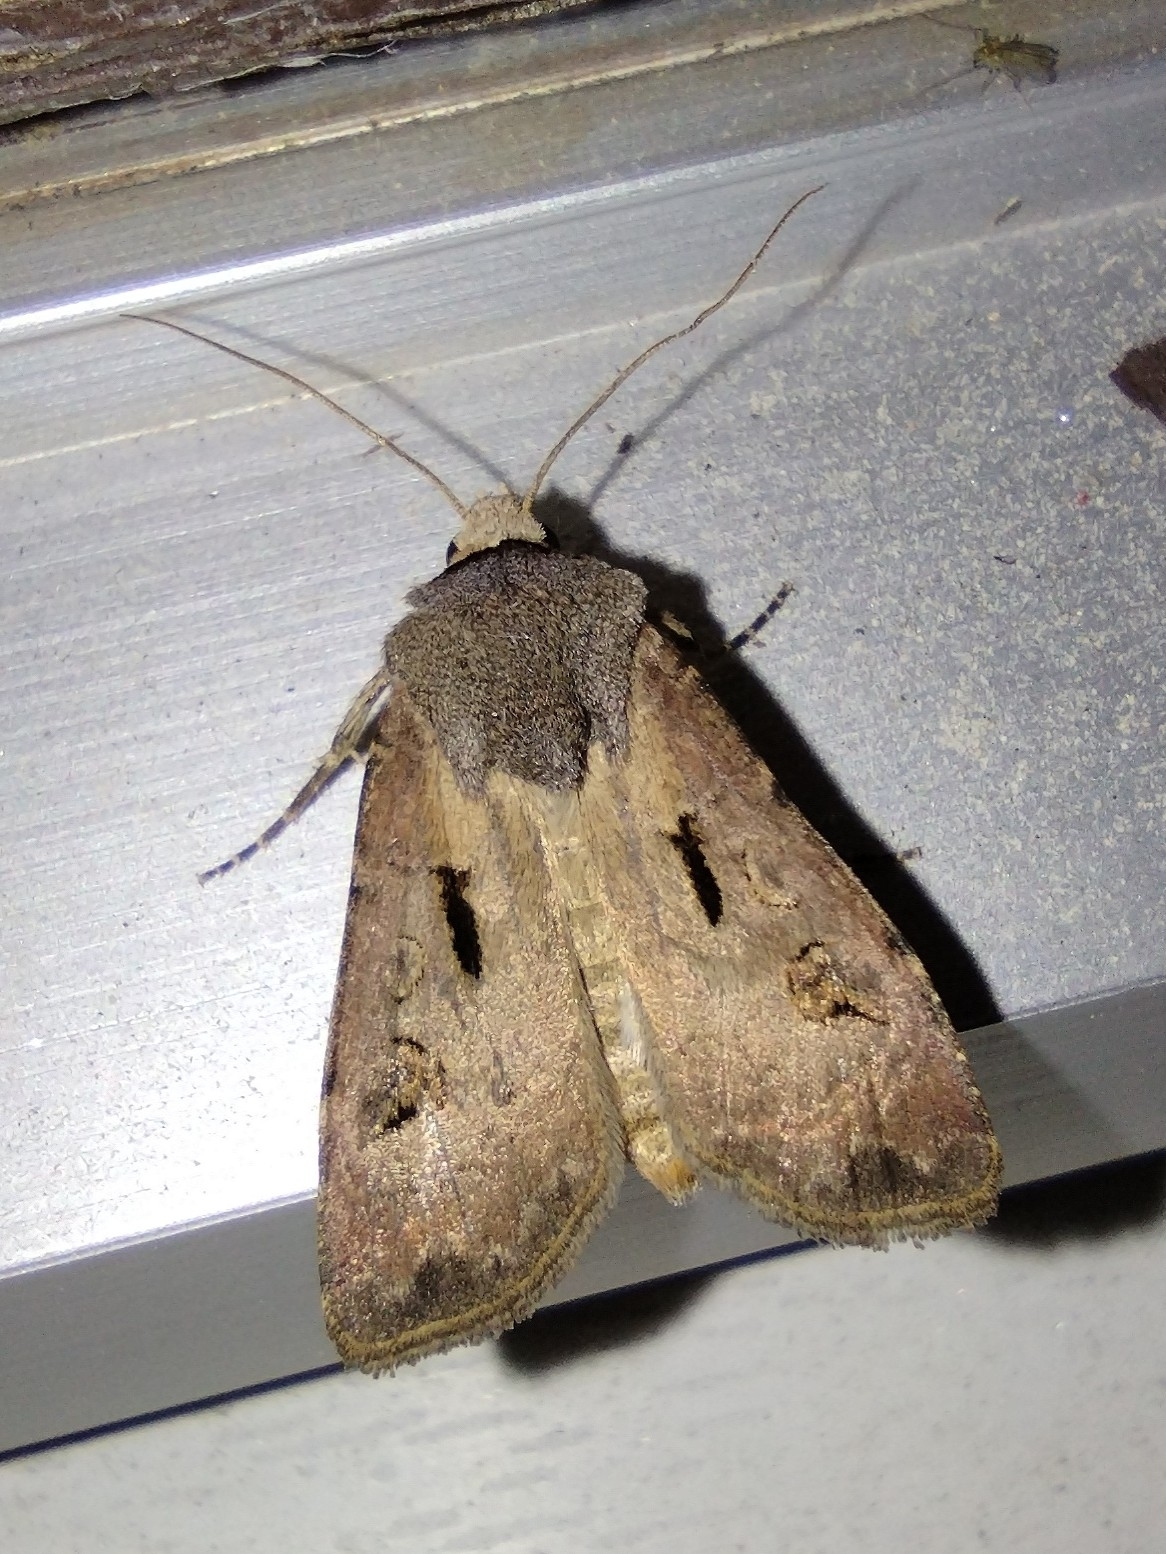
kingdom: Animalia
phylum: Arthropoda
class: Insecta
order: Lepidoptera
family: Noctuidae
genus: Agrotis
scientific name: Agrotis exclamationis
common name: Heart and dart
